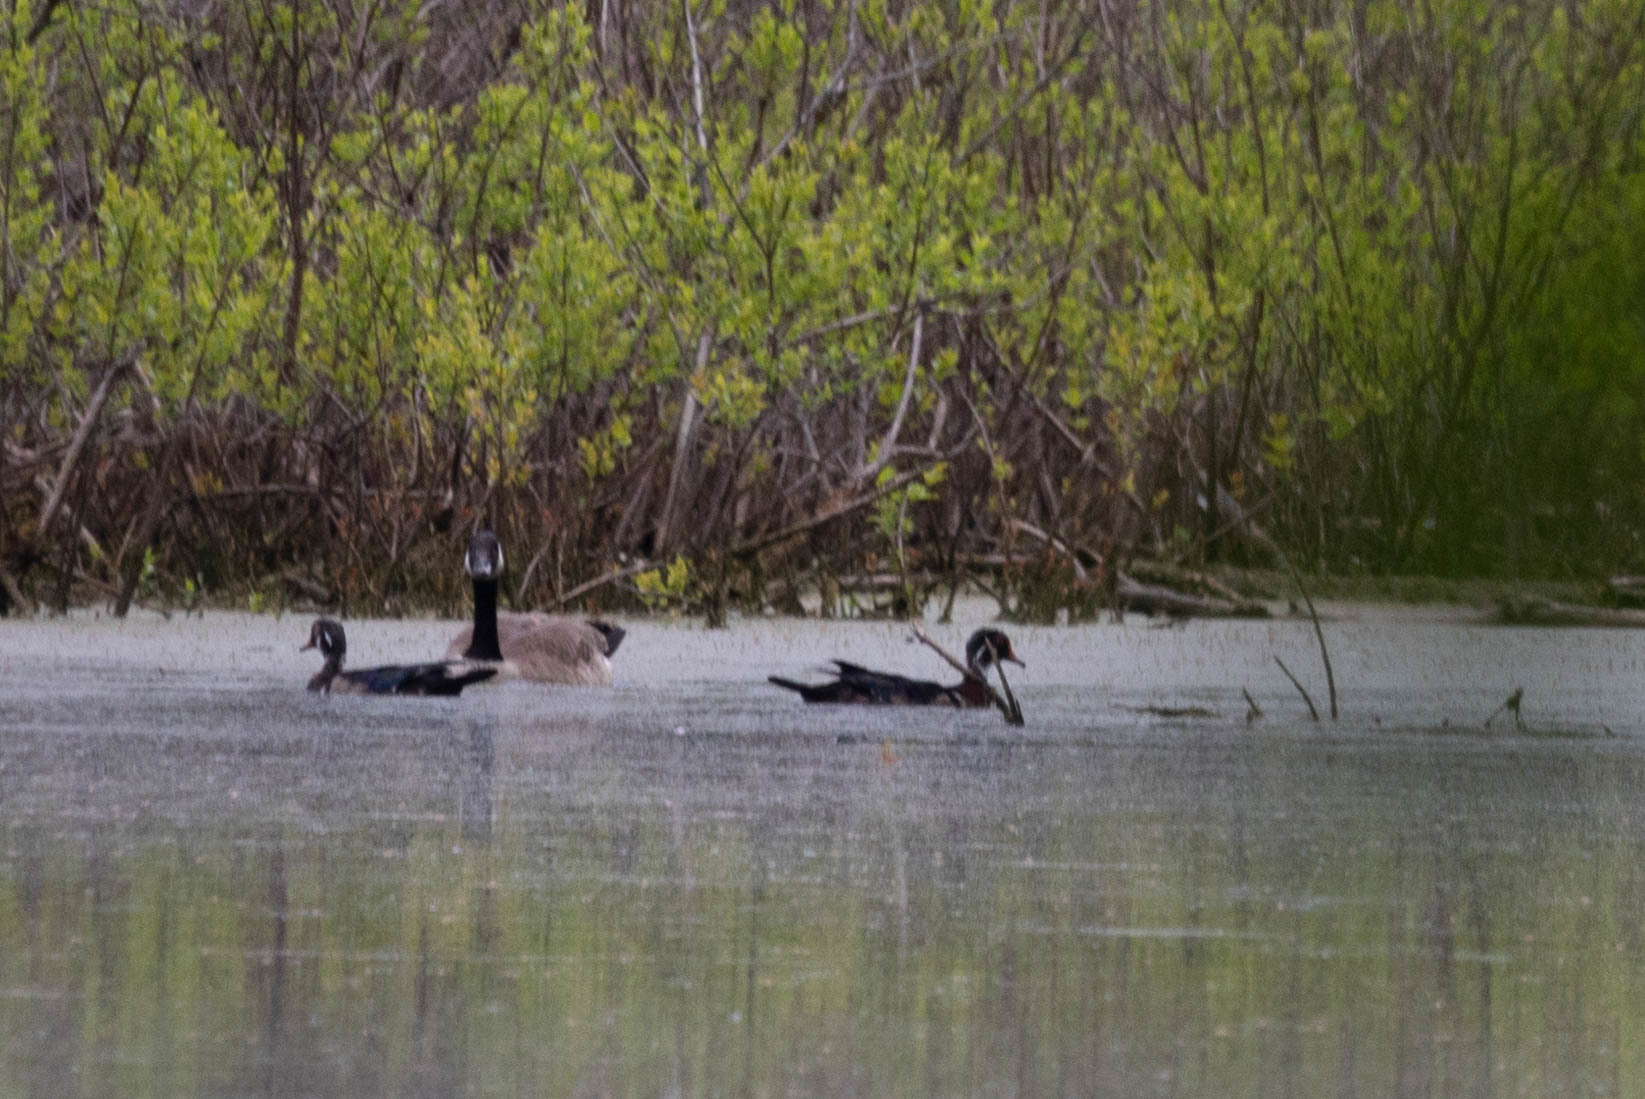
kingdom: Animalia
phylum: Chordata
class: Aves
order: Anseriformes
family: Anatidae
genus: Aix
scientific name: Aix sponsa
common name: Wood duck
